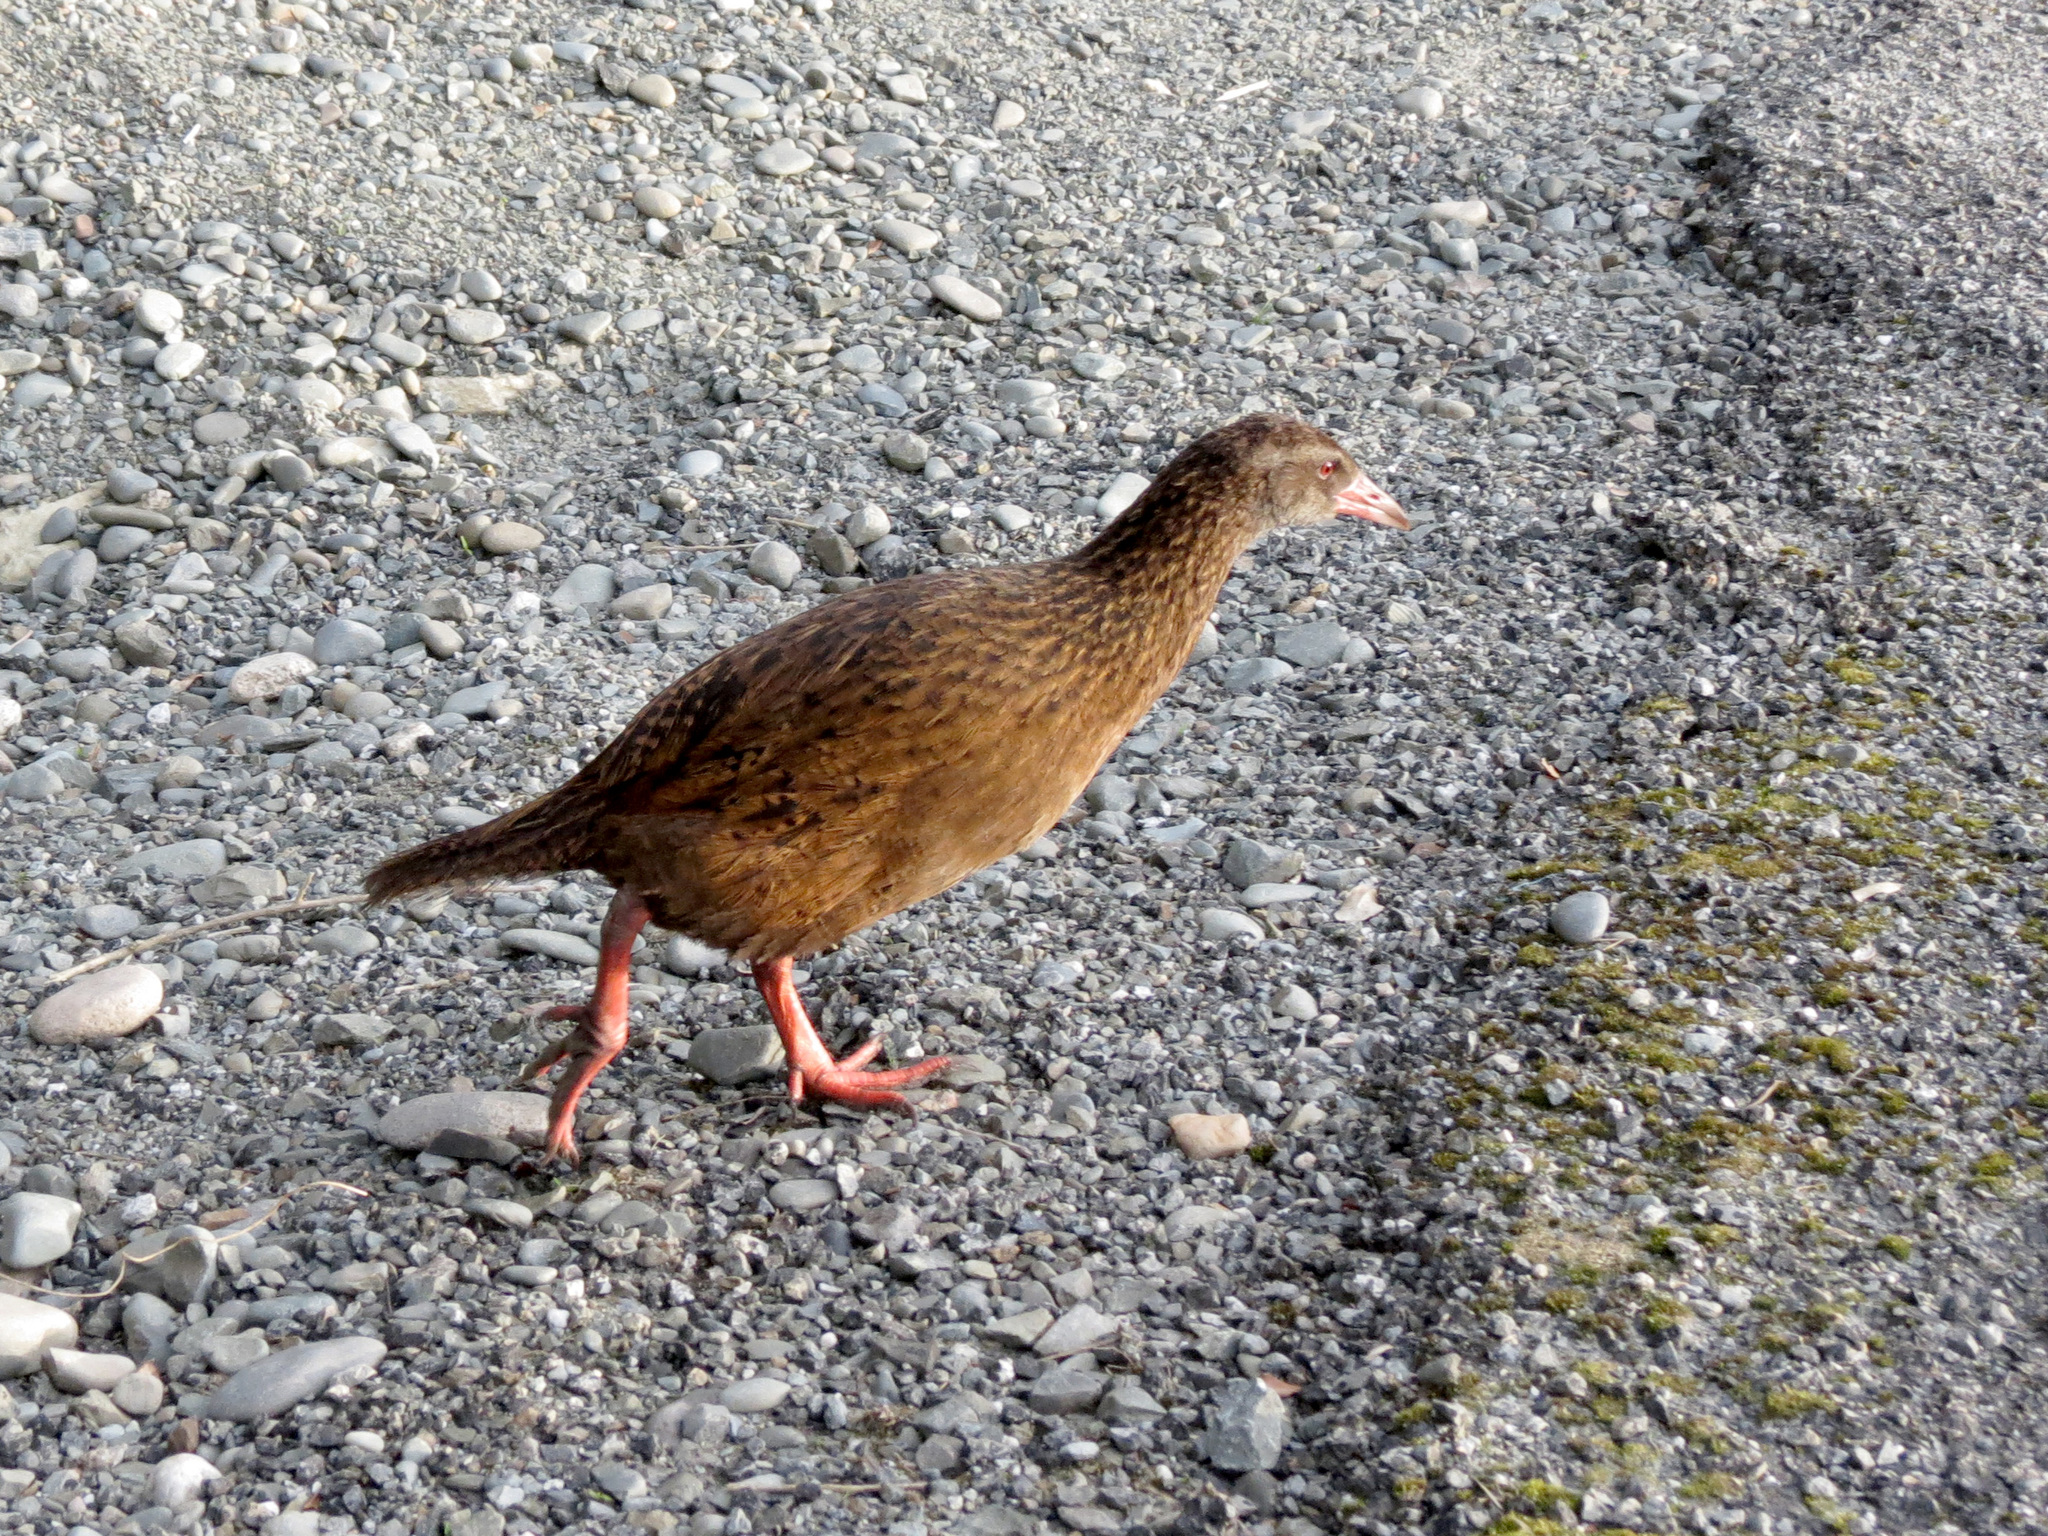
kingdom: Animalia
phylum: Chordata
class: Aves
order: Gruiformes
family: Rallidae
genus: Gallirallus
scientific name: Gallirallus australis
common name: Weka
